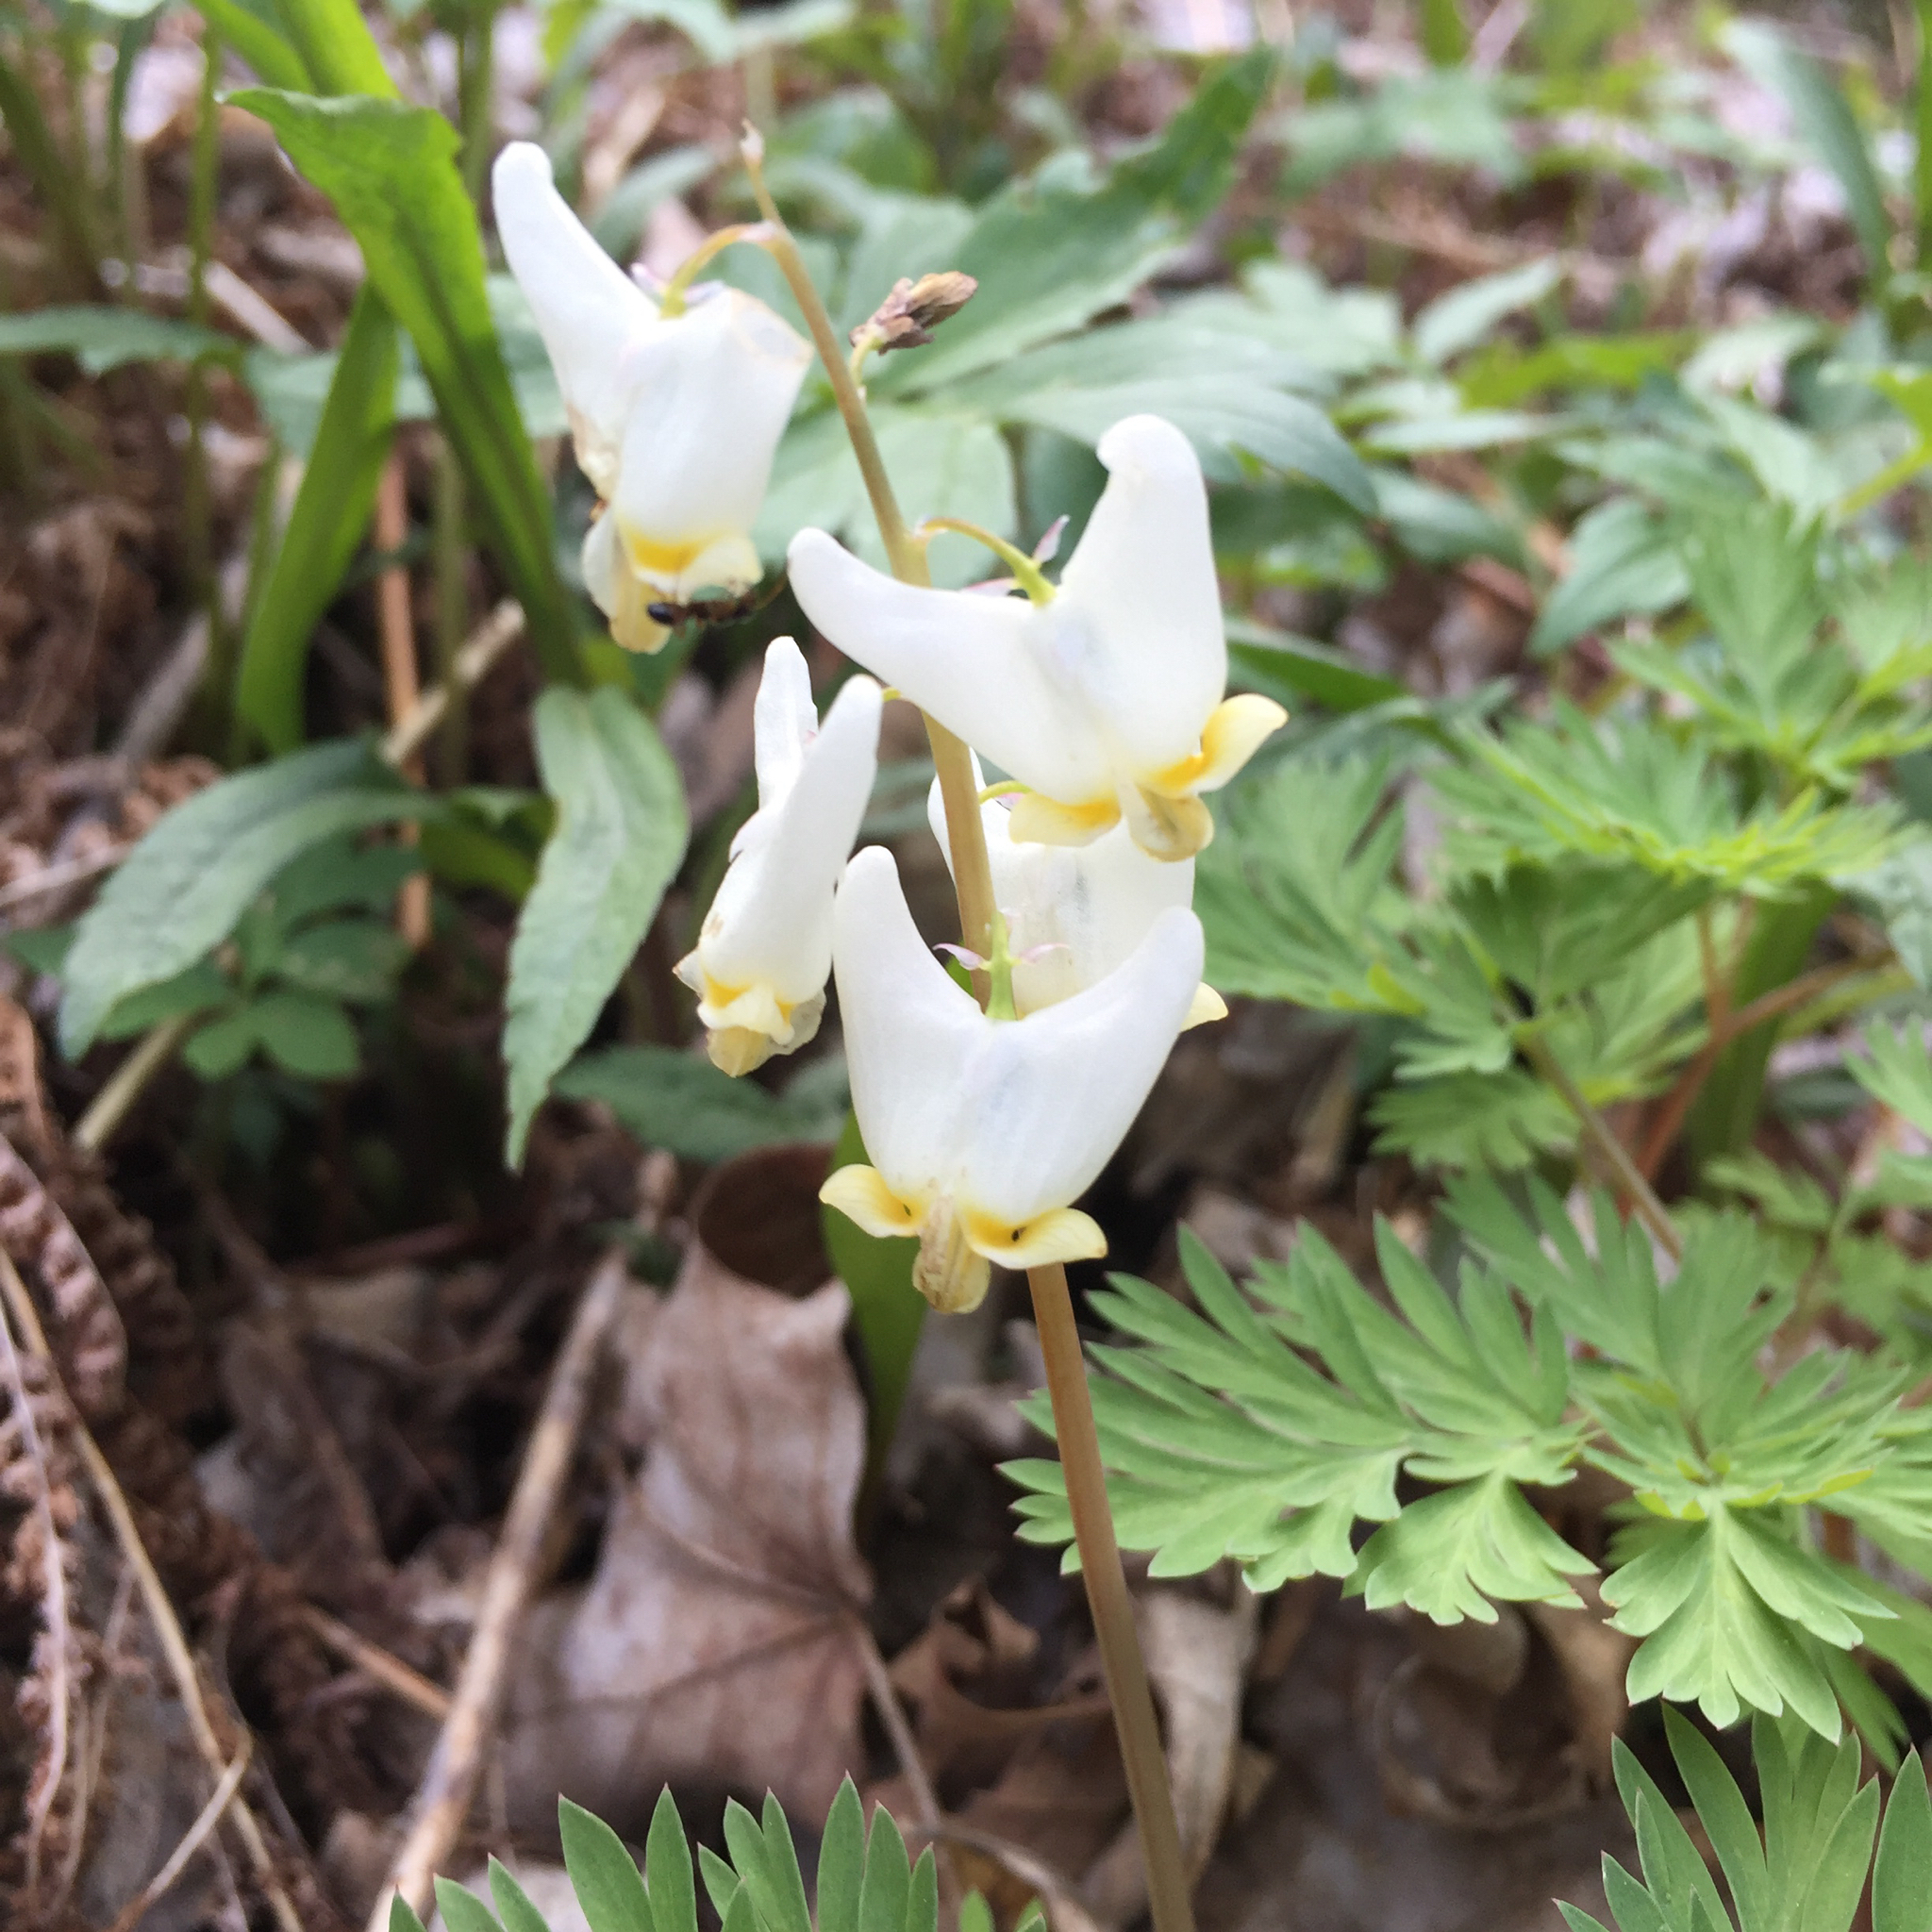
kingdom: Plantae
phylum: Tracheophyta
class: Magnoliopsida
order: Ranunculales
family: Papaveraceae
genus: Dicentra
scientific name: Dicentra cucullaria
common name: Dutchman's breeches
